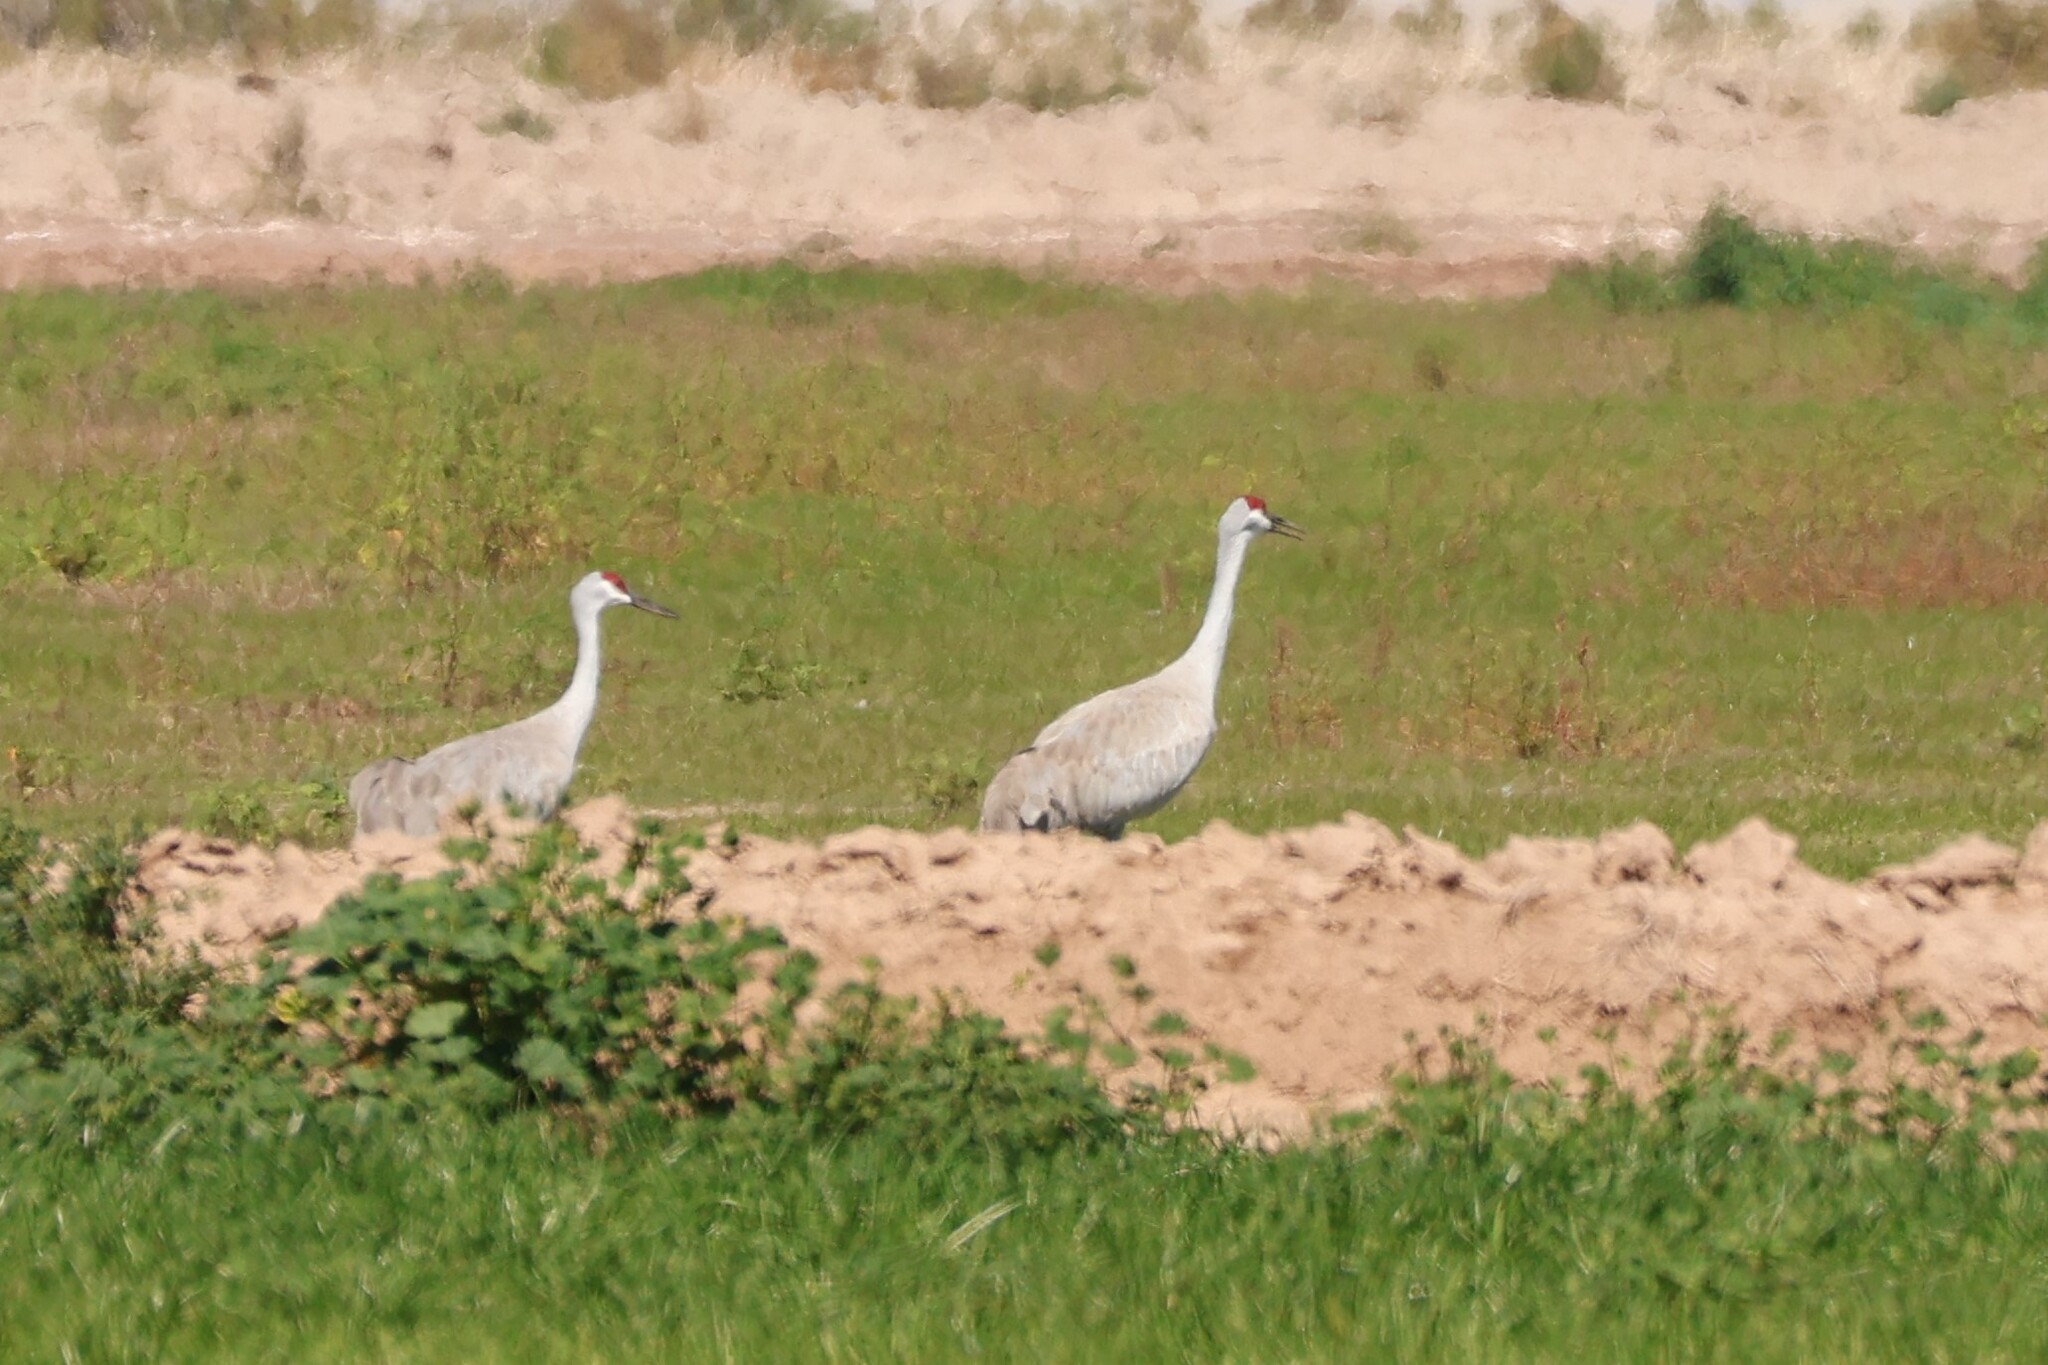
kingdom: Animalia
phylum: Chordata
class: Aves
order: Gruiformes
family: Gruidae
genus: Grus
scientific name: Grus canadensis
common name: Sandhill crane
